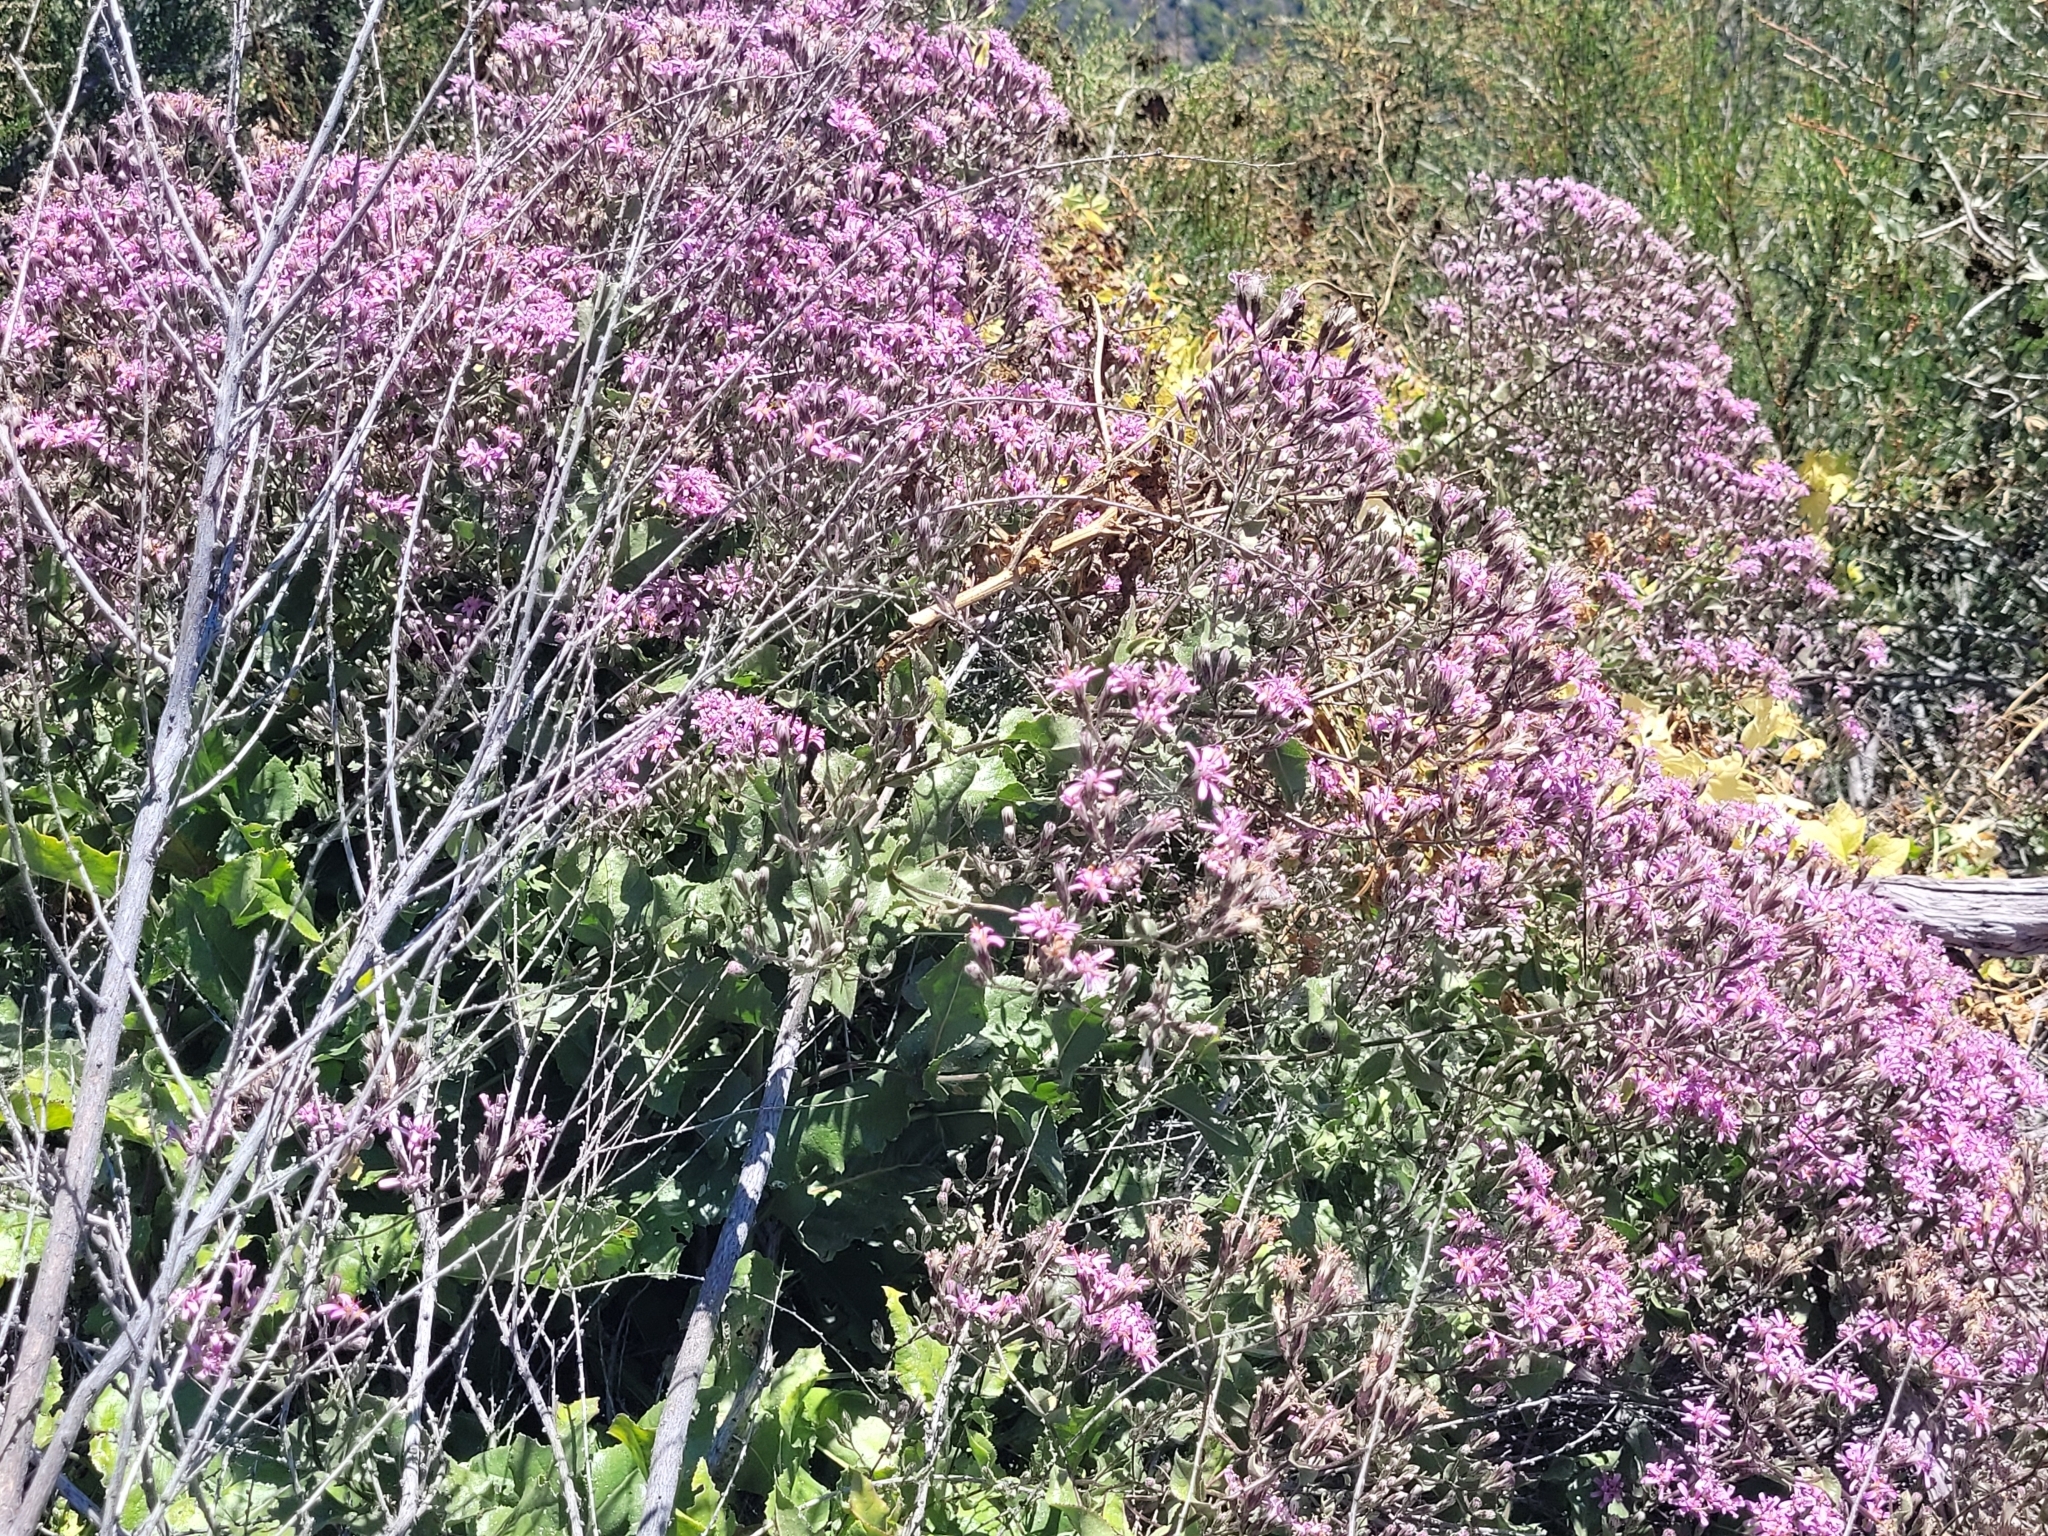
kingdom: Plantae
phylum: Tracheophyta
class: Magnoliopsida
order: Asterales
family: Asteraceae
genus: Acourtia
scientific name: Acourtia microcephala
